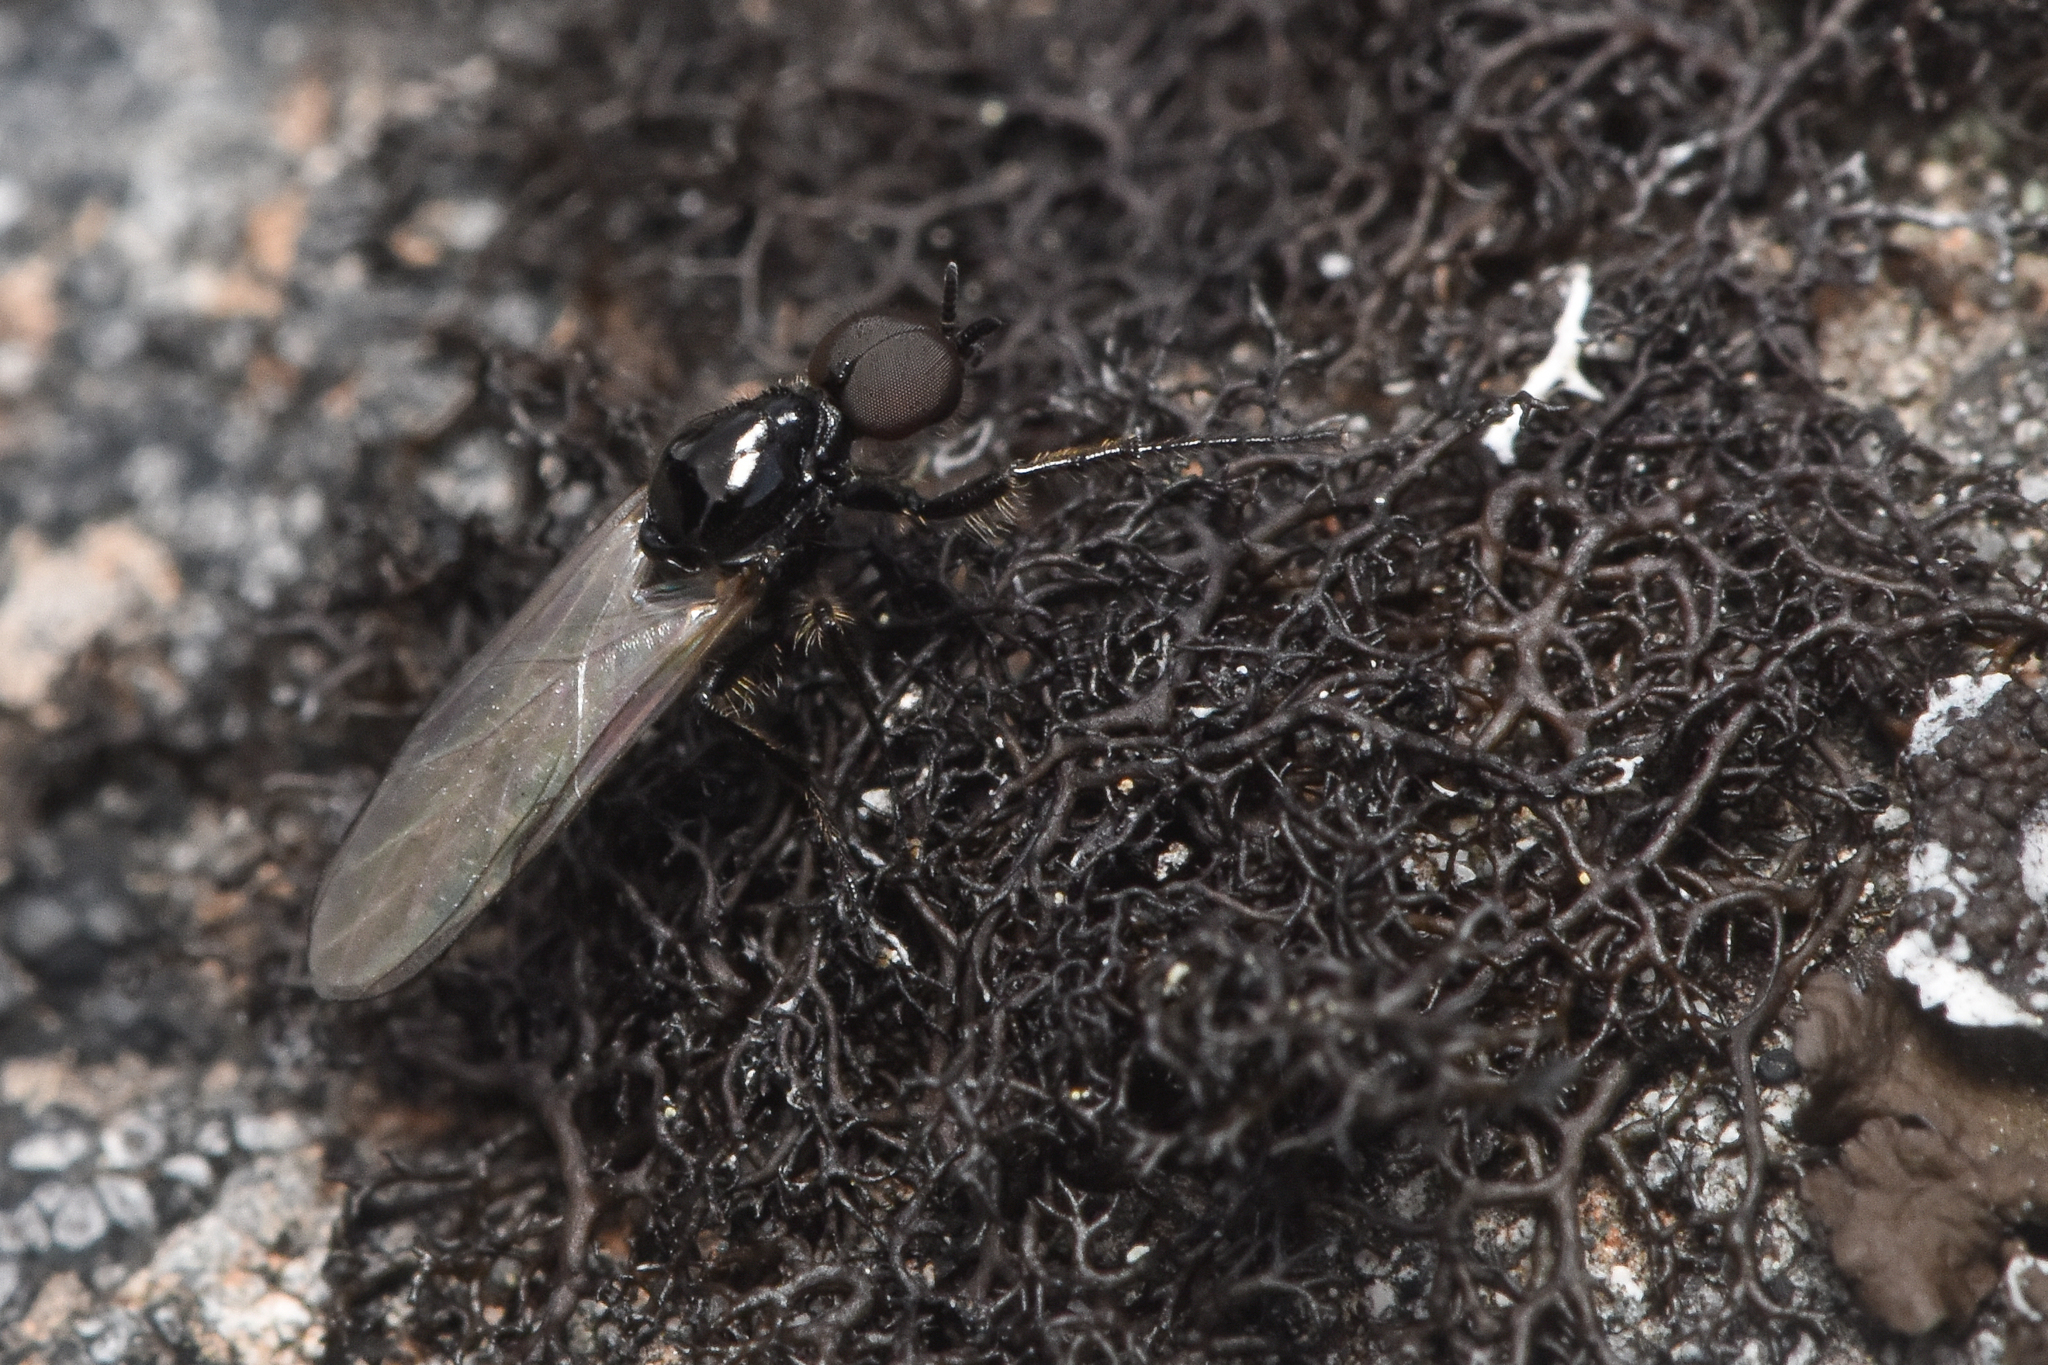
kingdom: Animalia
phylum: Arthropoda
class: Insecta
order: Diptera
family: Bibionidae
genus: Dilophus
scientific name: Dilophus
